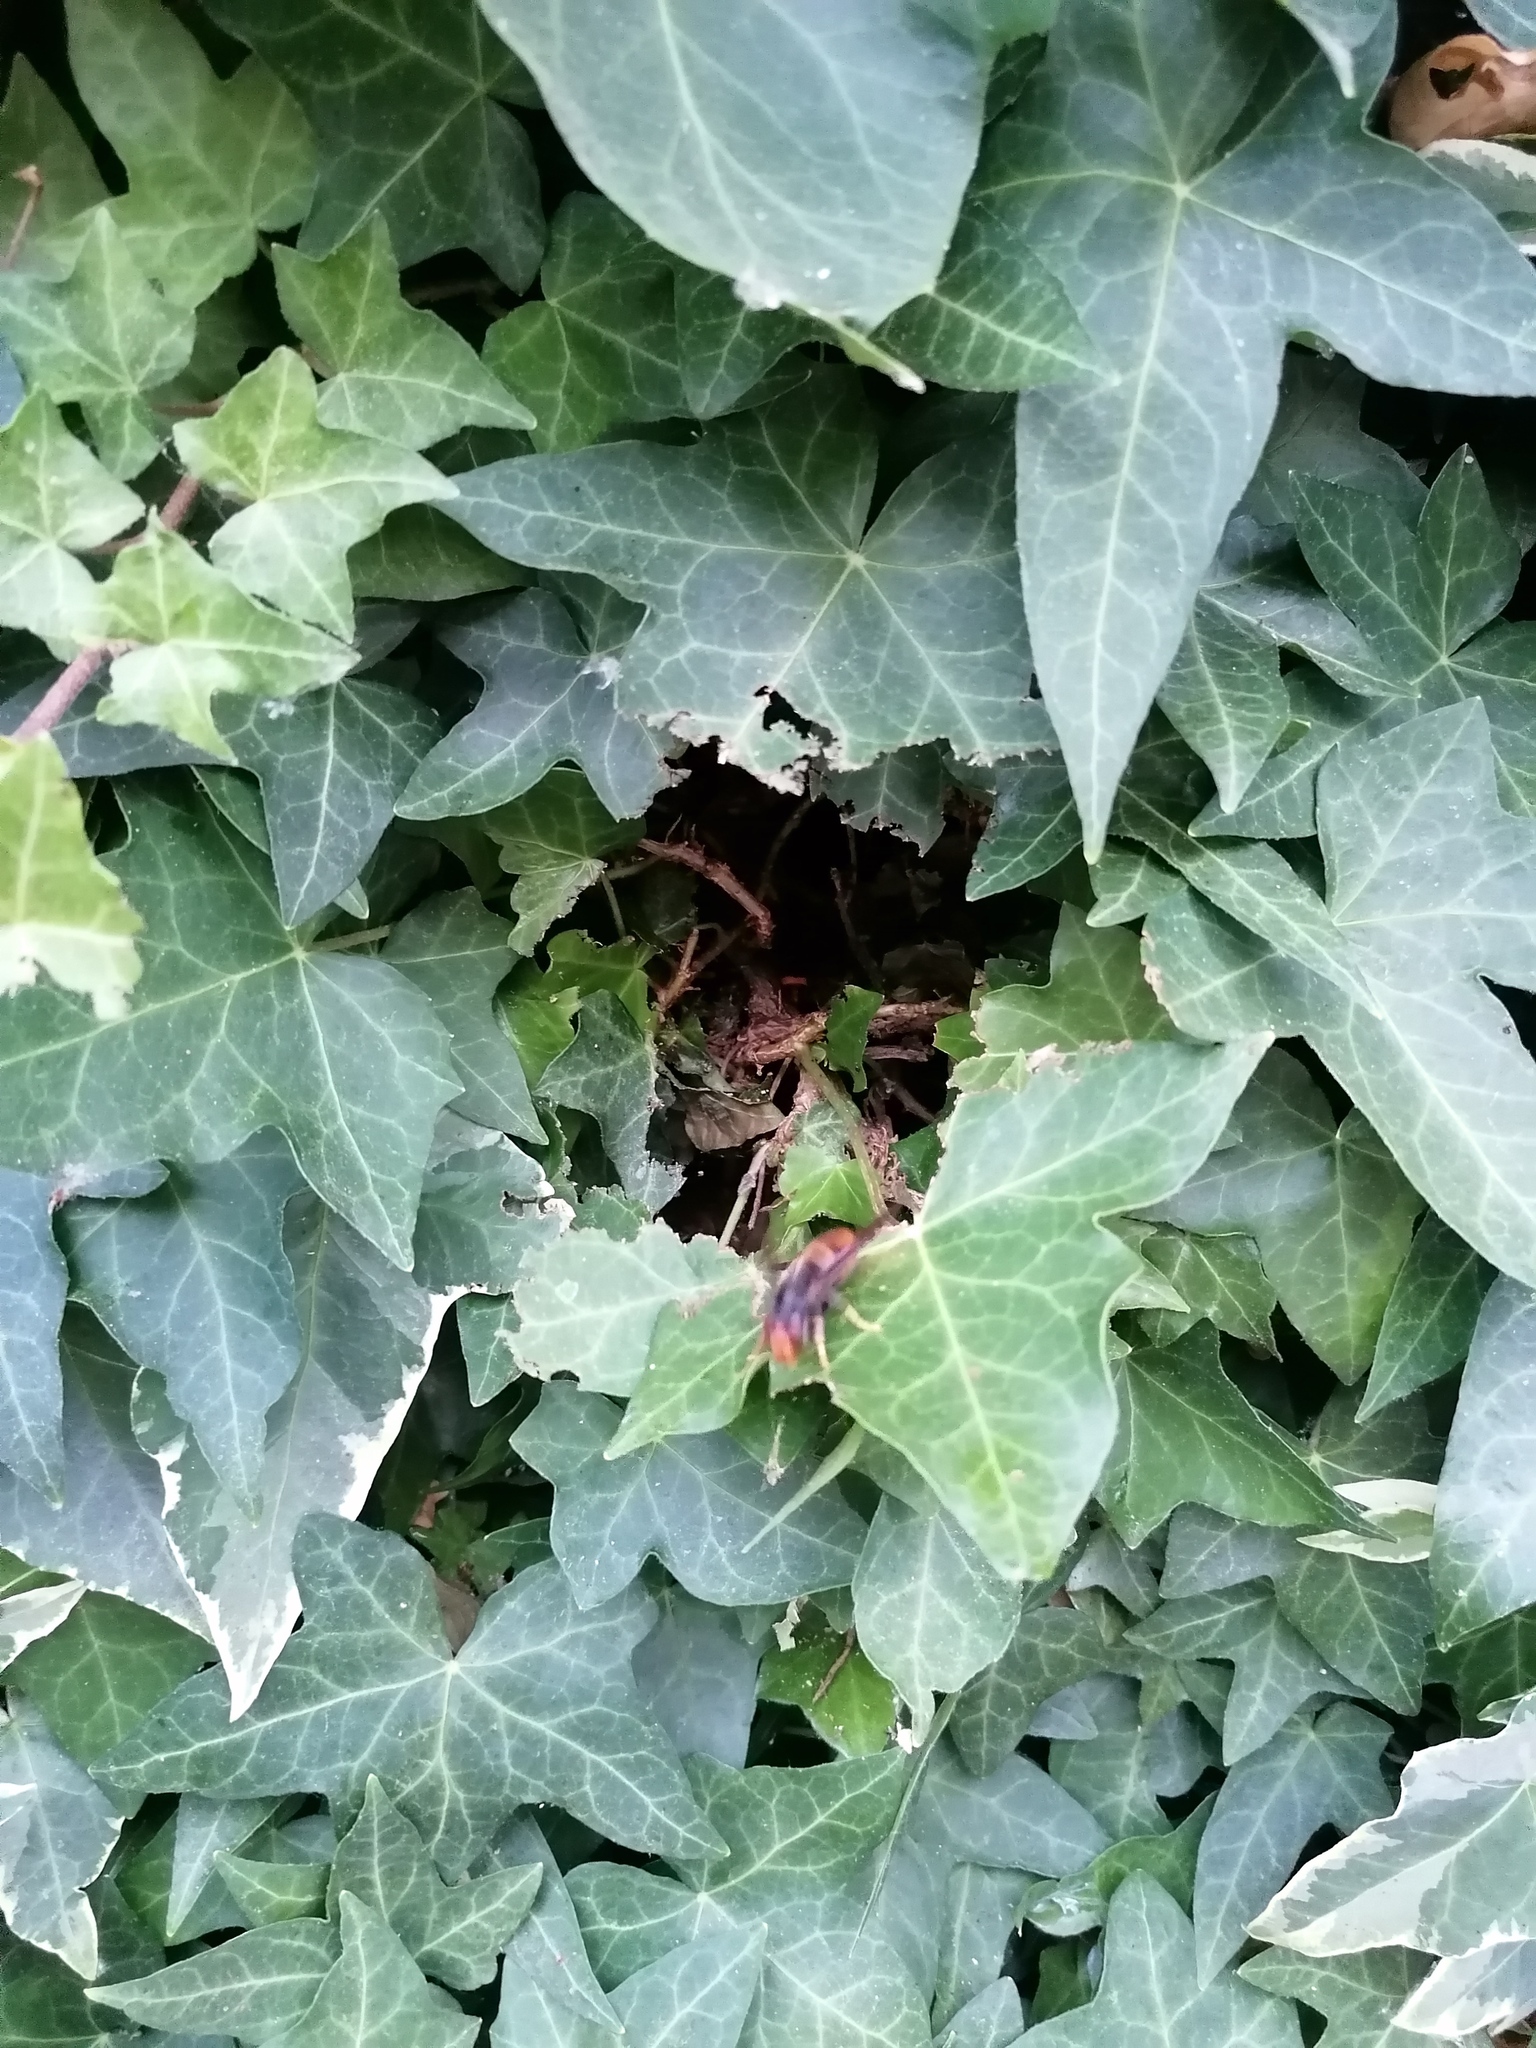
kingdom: Animalia
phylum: Arthropoda
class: Insecta
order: Hymenoptera
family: Vespidae
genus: Vespa
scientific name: Vespa velutina
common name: Asian hornet
